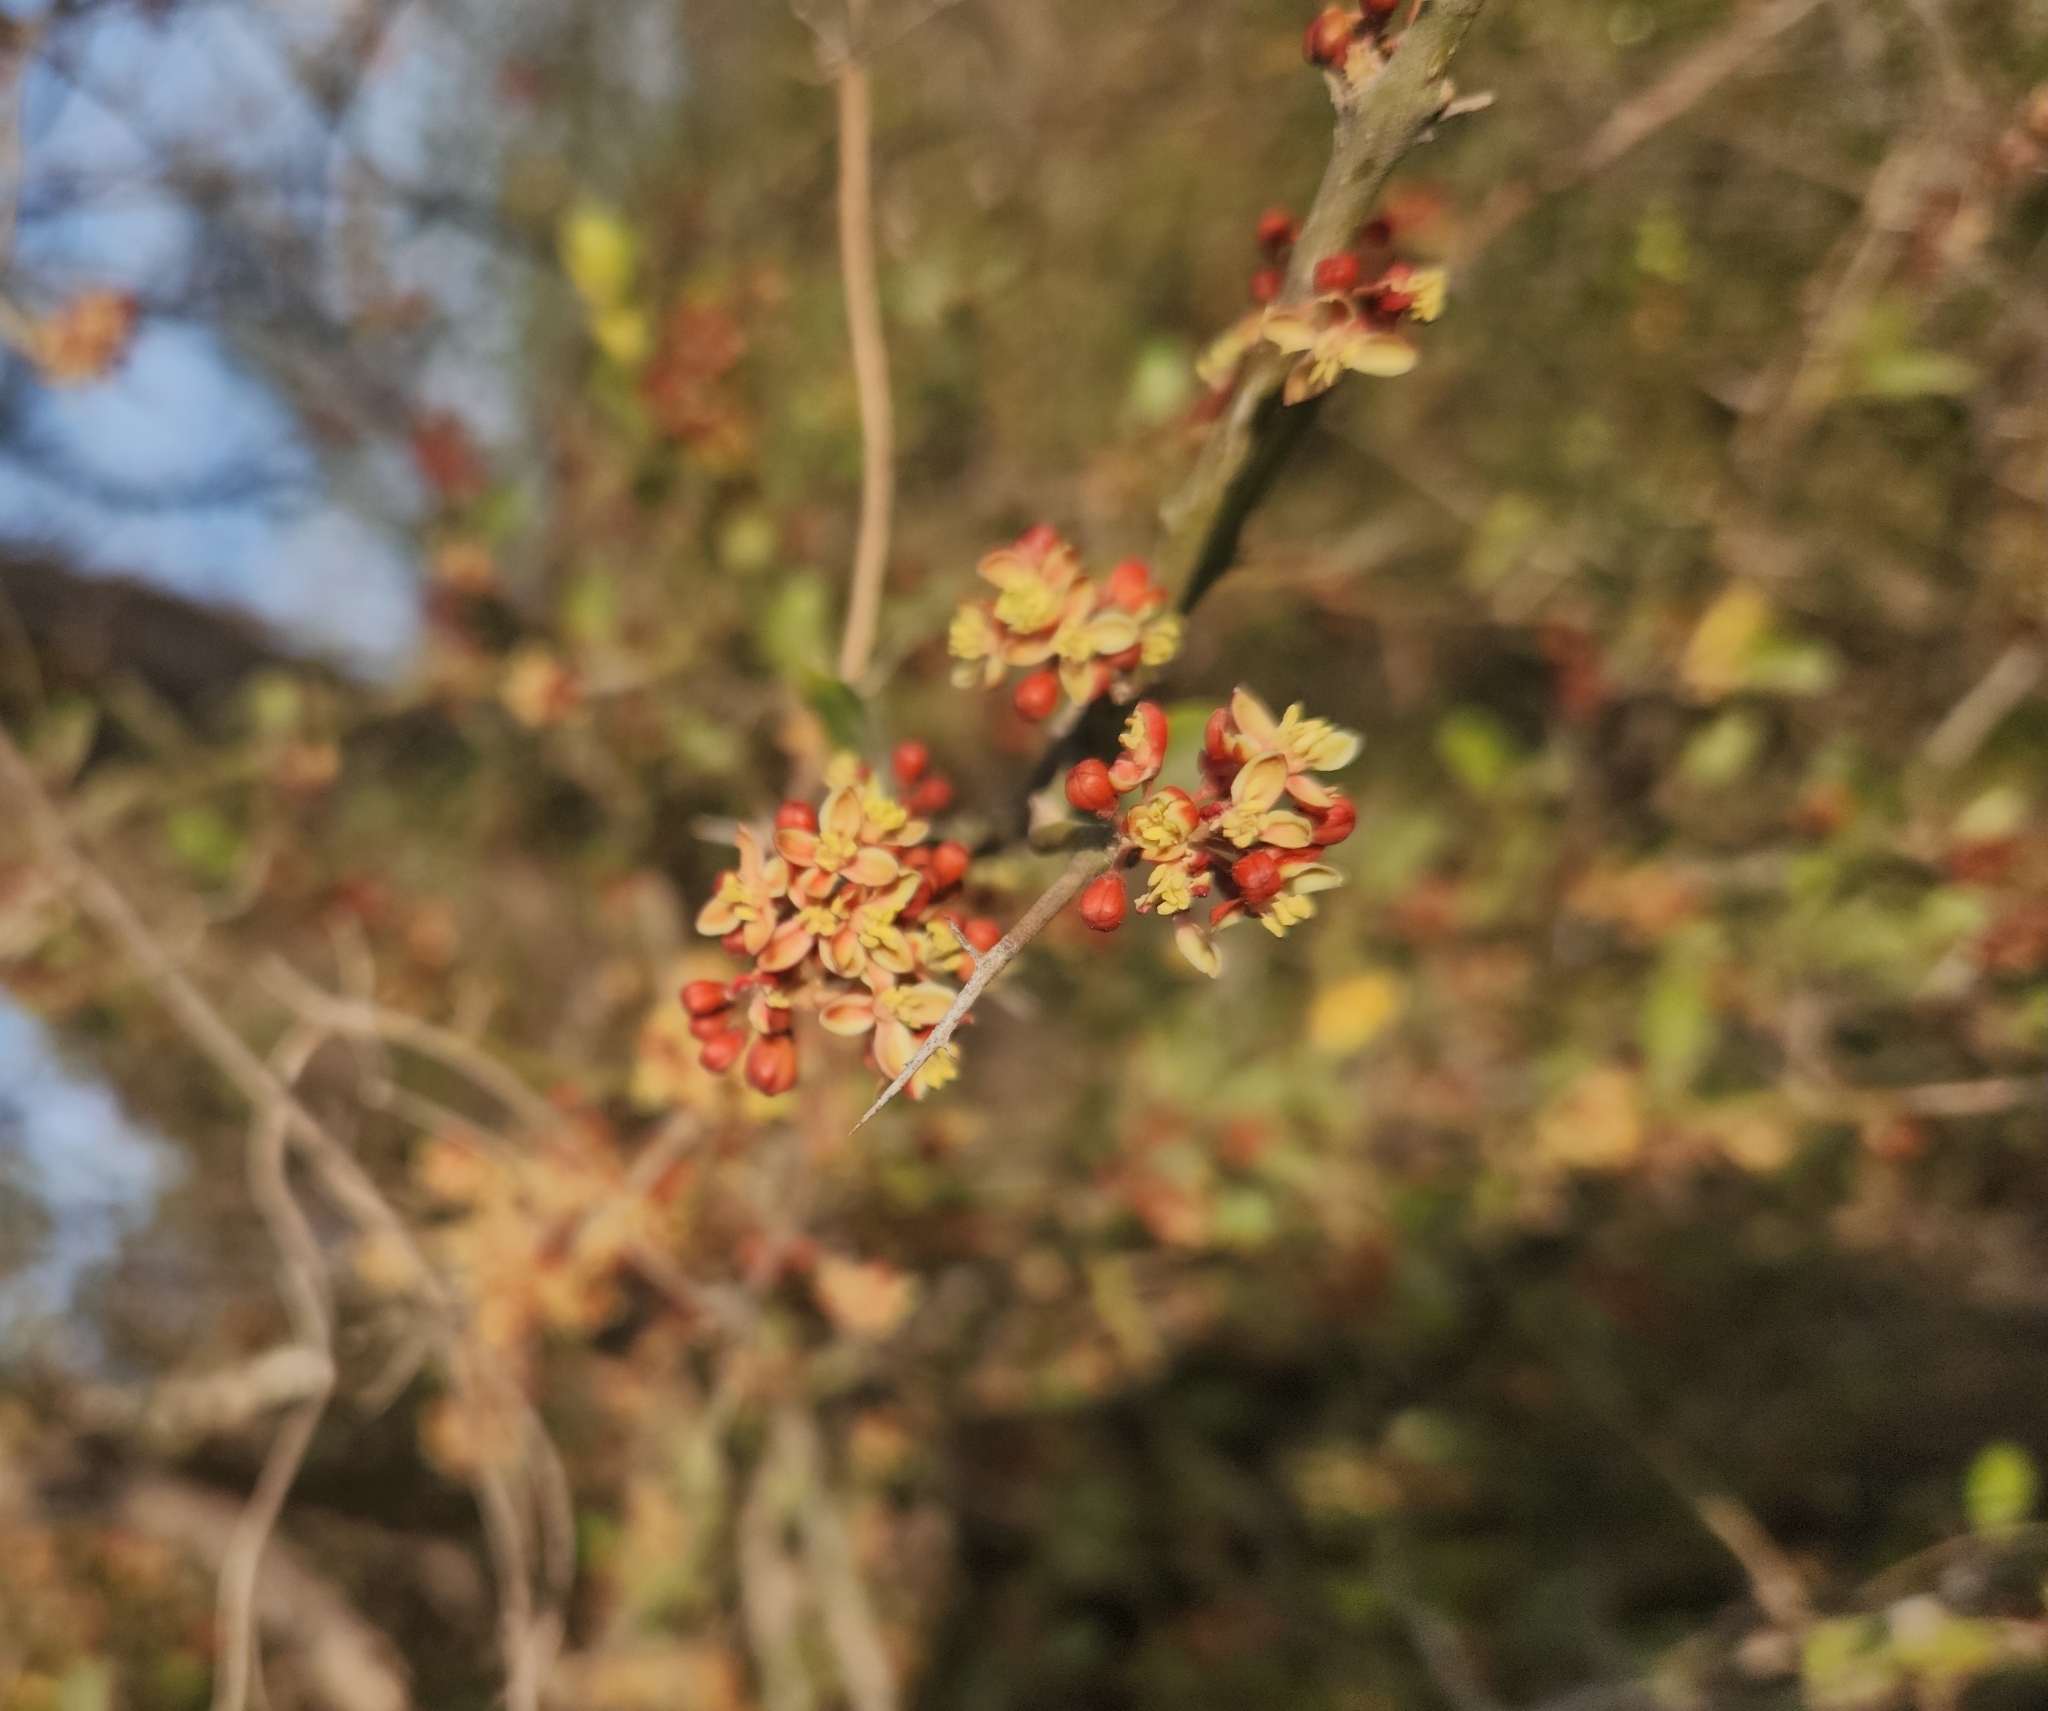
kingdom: Plantae
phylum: Tracheophyta
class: Magnoliopsida
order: Sapindales
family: Simaroubaceae
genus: Castela
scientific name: Castela coccinea
